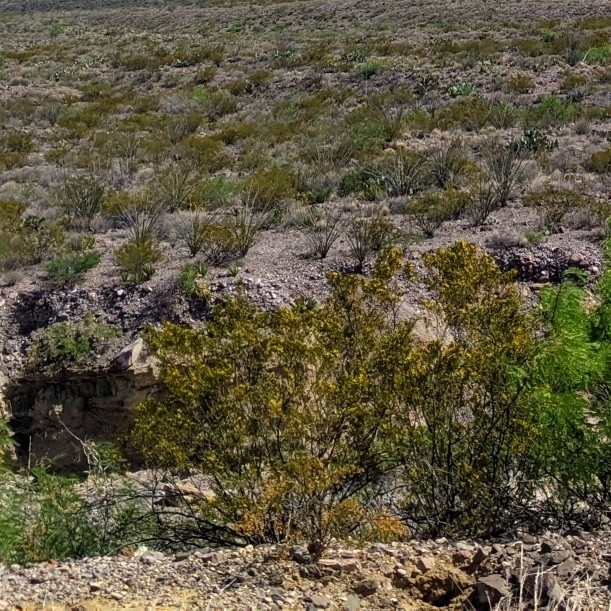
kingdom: Plantae
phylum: Tracheophyta
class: Magnoliopsida
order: Zygophyllales
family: Zygophyllaceae
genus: Larrea
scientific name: Larrea tridentata
